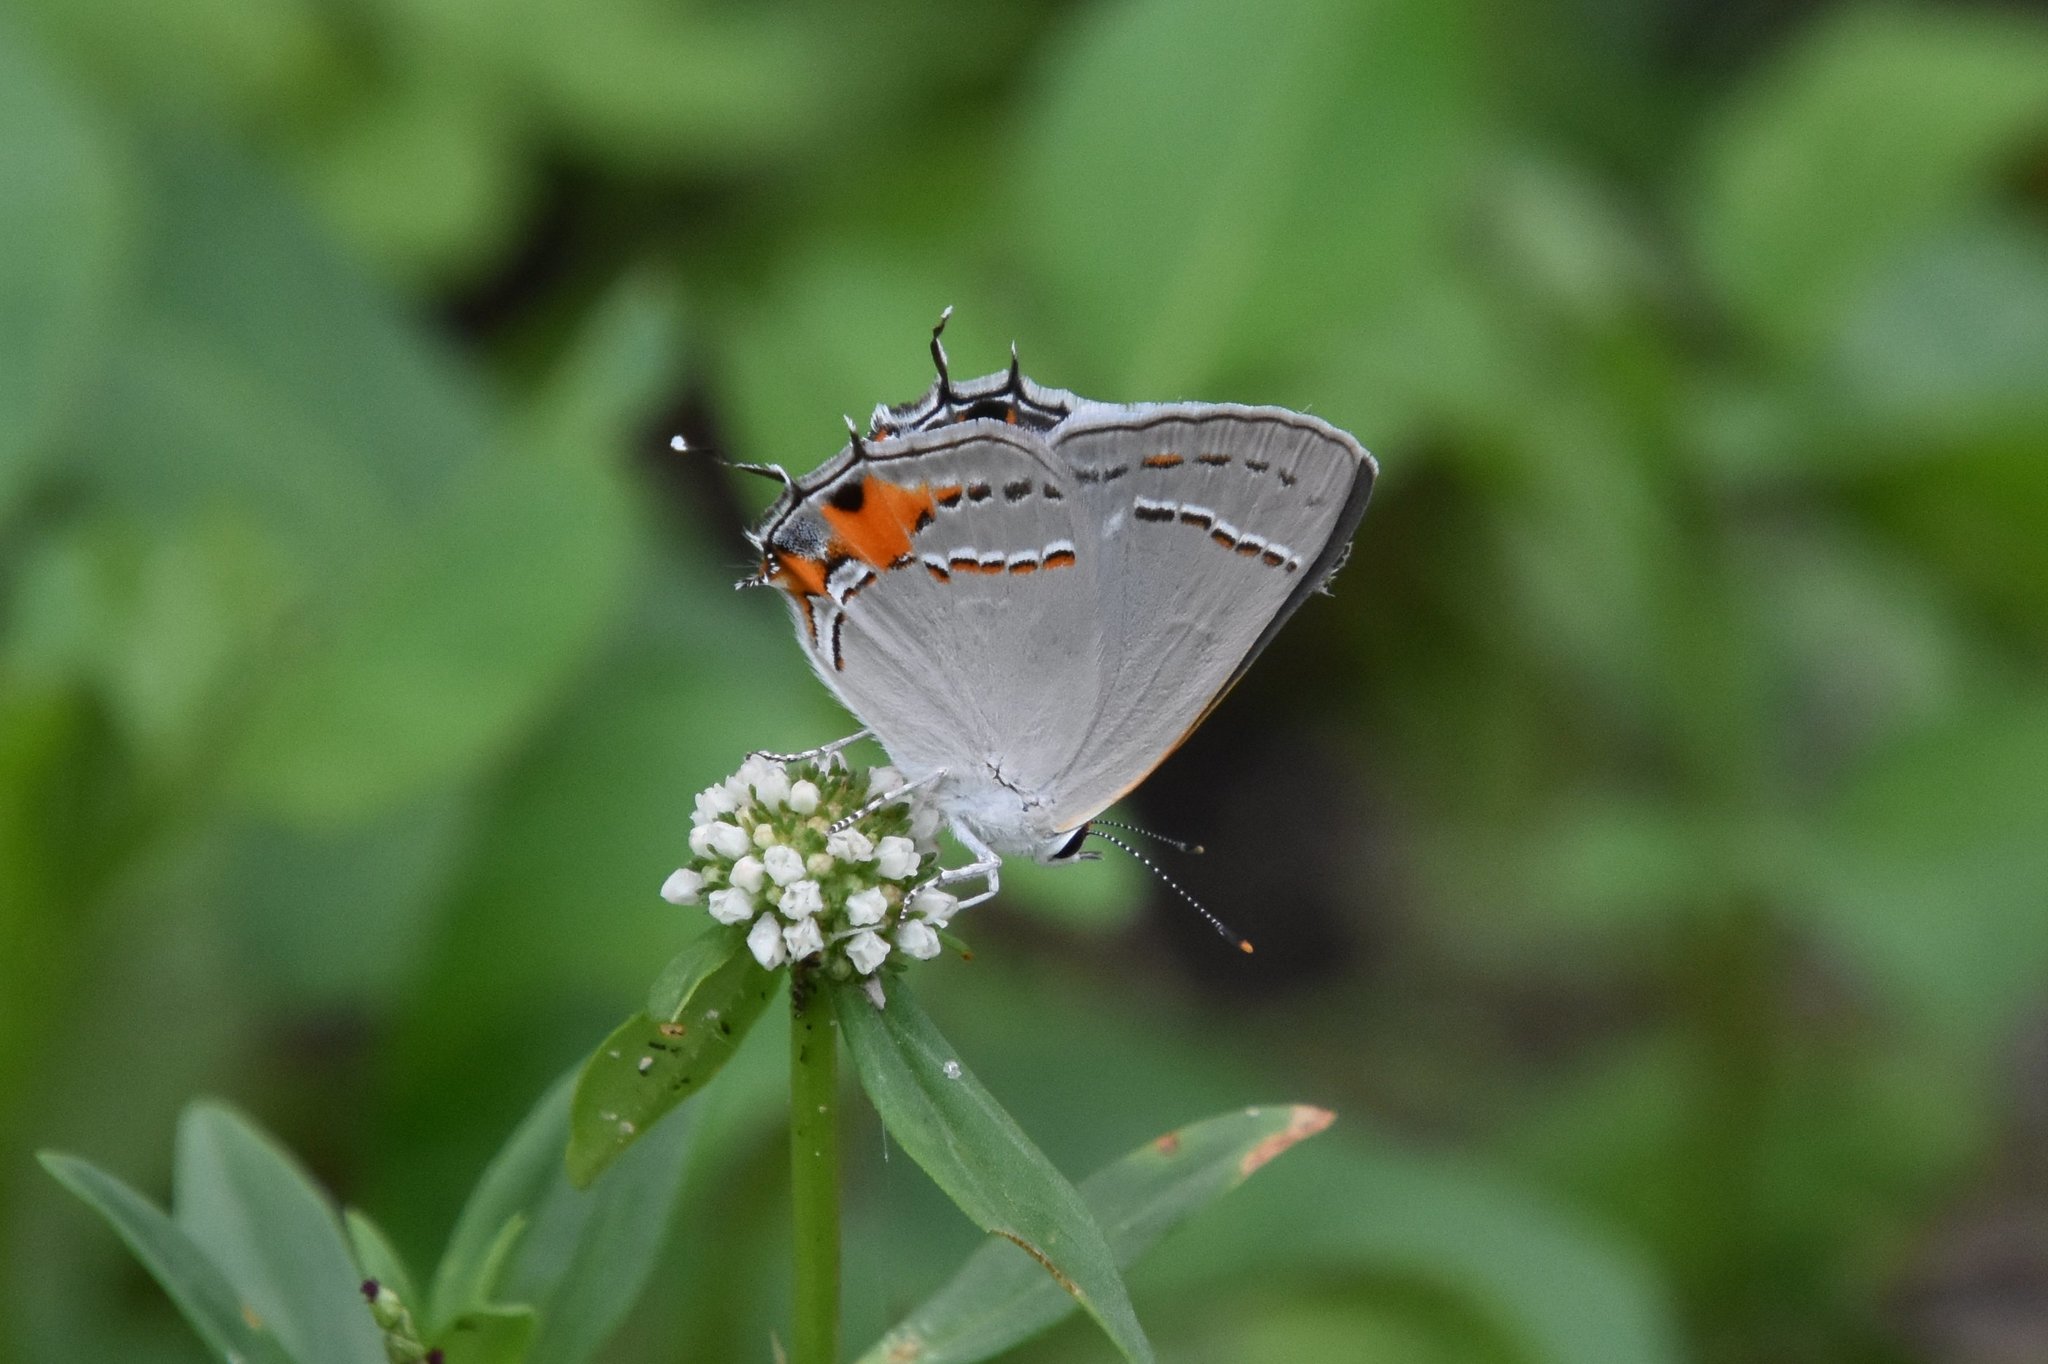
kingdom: Animalia
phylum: Arthropoda
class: Insecta
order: Lepidoptera
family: Lycaenidae
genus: Strymon
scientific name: Strymon melinus
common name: Gray hairstreak
